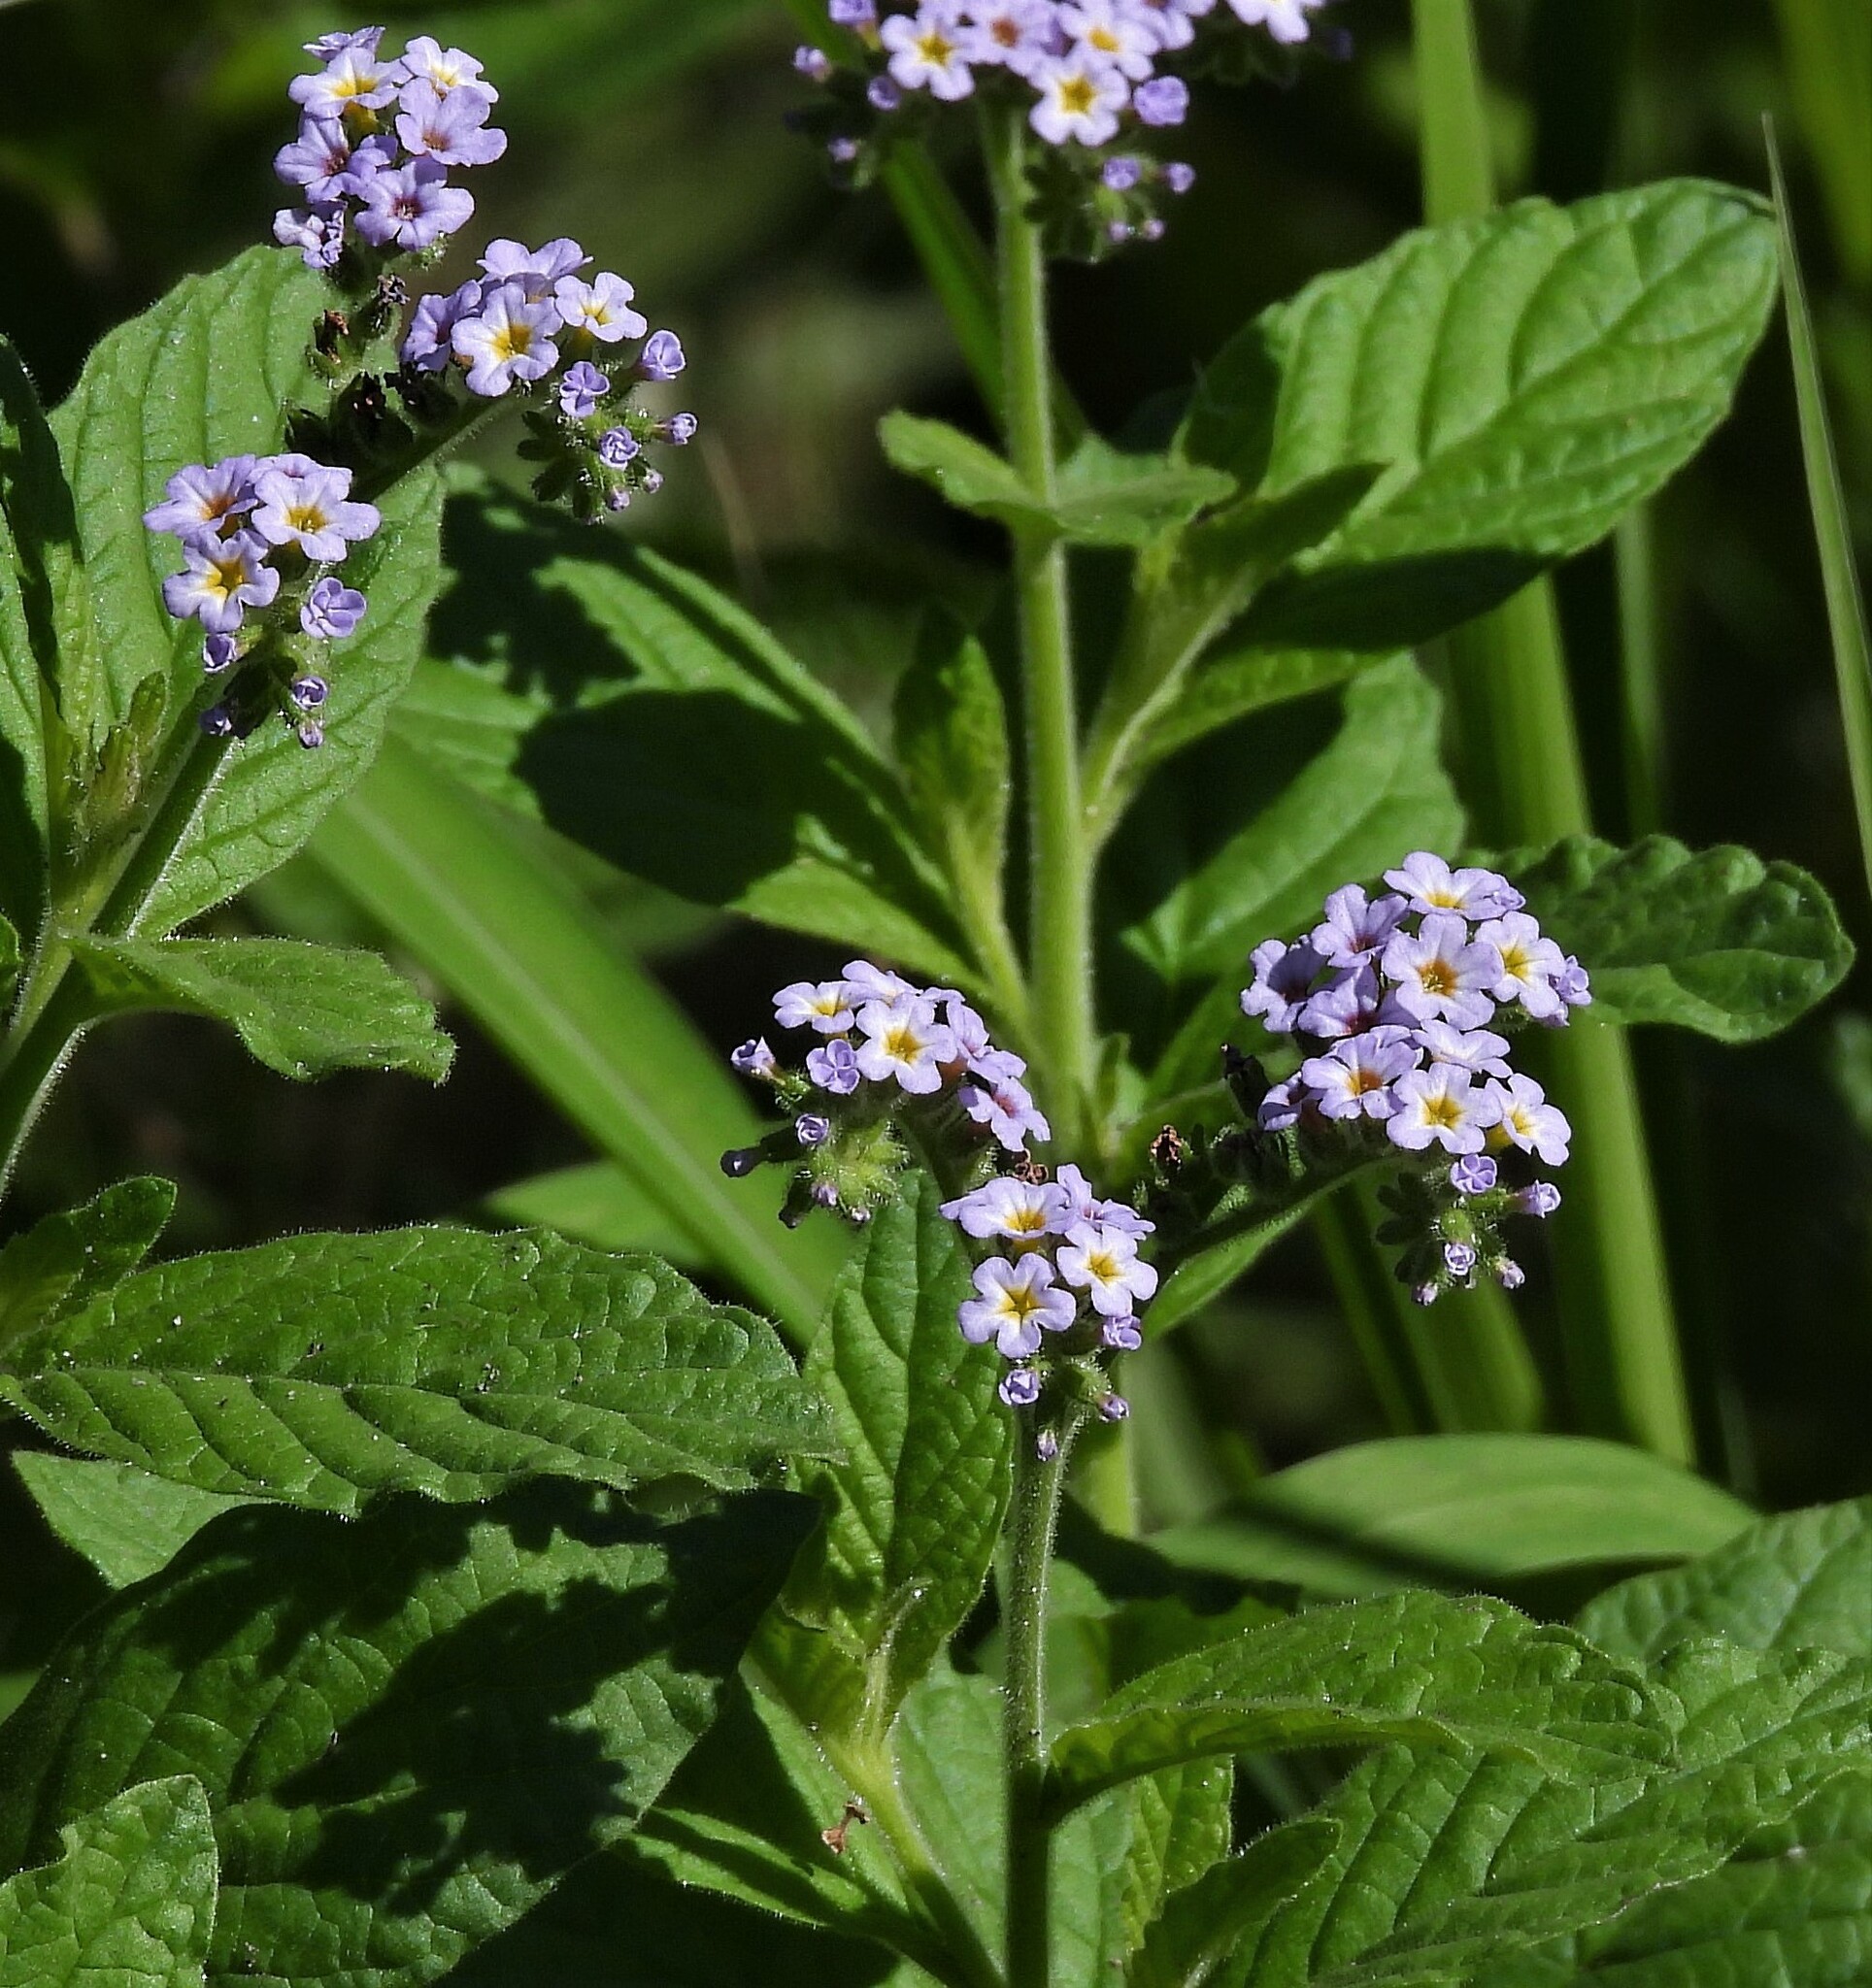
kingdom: Plantae
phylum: Tracheophyta
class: Magnoliopsida
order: Boraginales
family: Heliotropiaceae
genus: Heliotropium
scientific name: Heliotropium amplexicaule
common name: Clasping heliotrope
